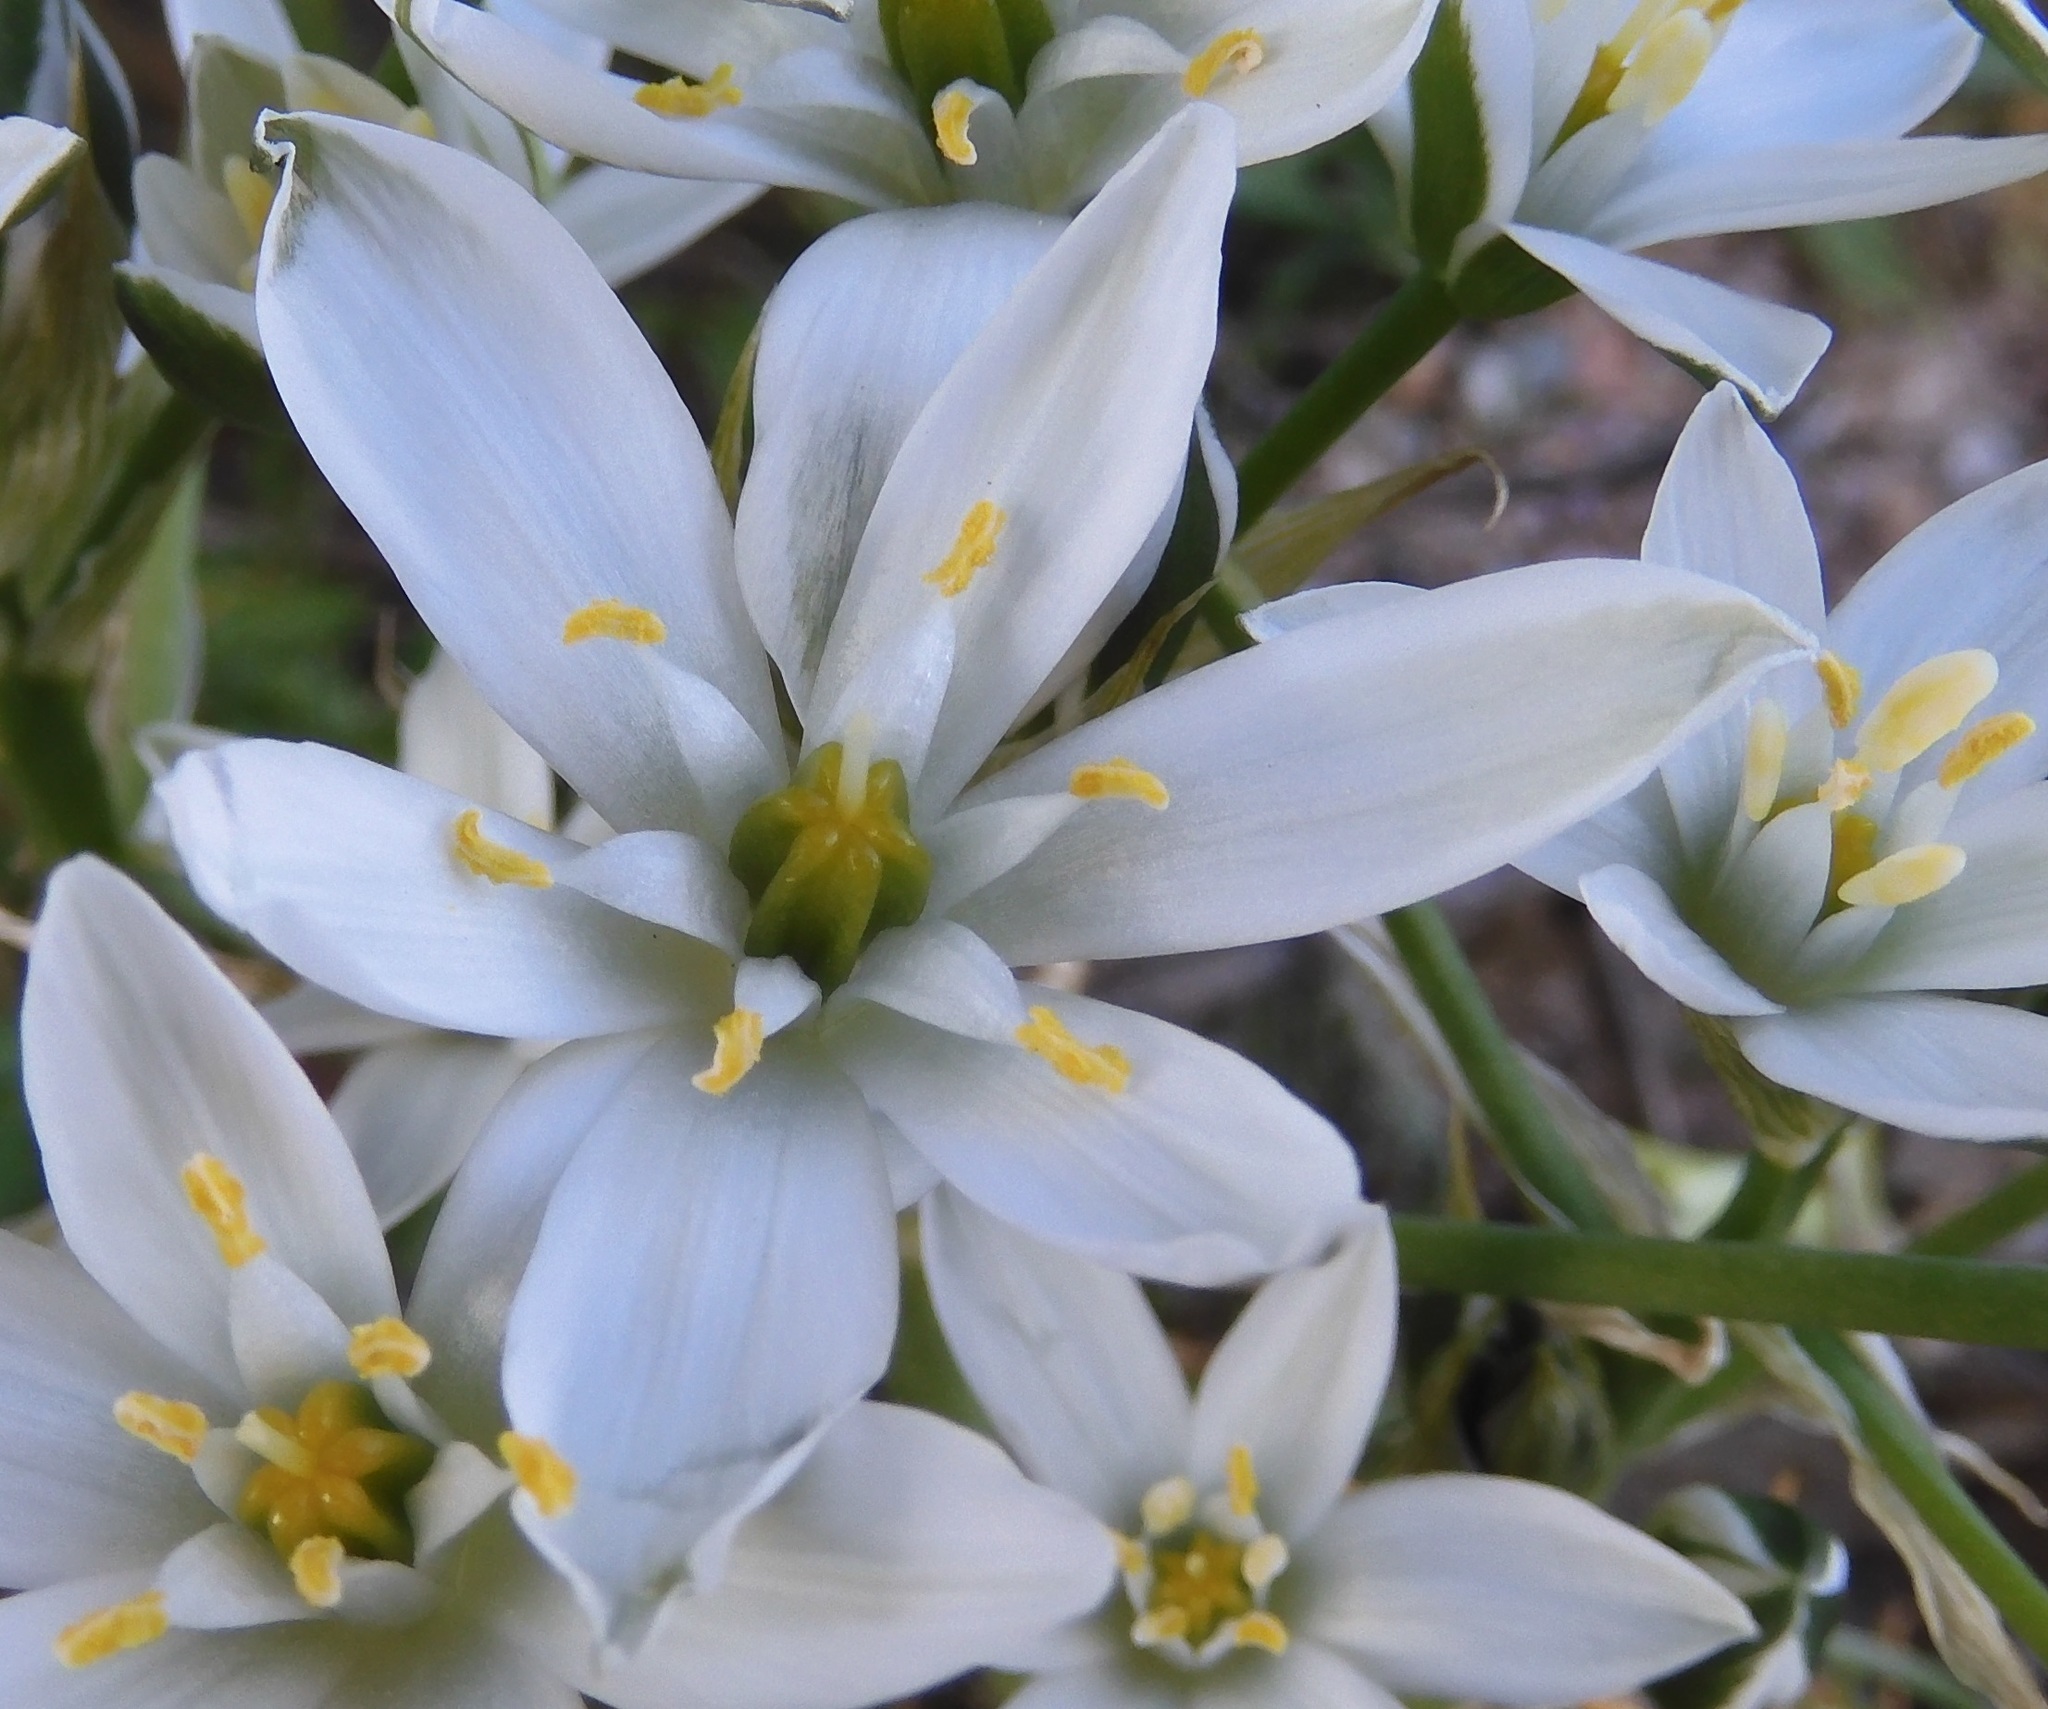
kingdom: Plantae
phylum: Tracheophyta
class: Liliopsida
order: Asparagales
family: Asparagaceae
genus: Ornithogalum
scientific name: Ornithogalum umbellatum
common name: Garden star-of-bethlehem
